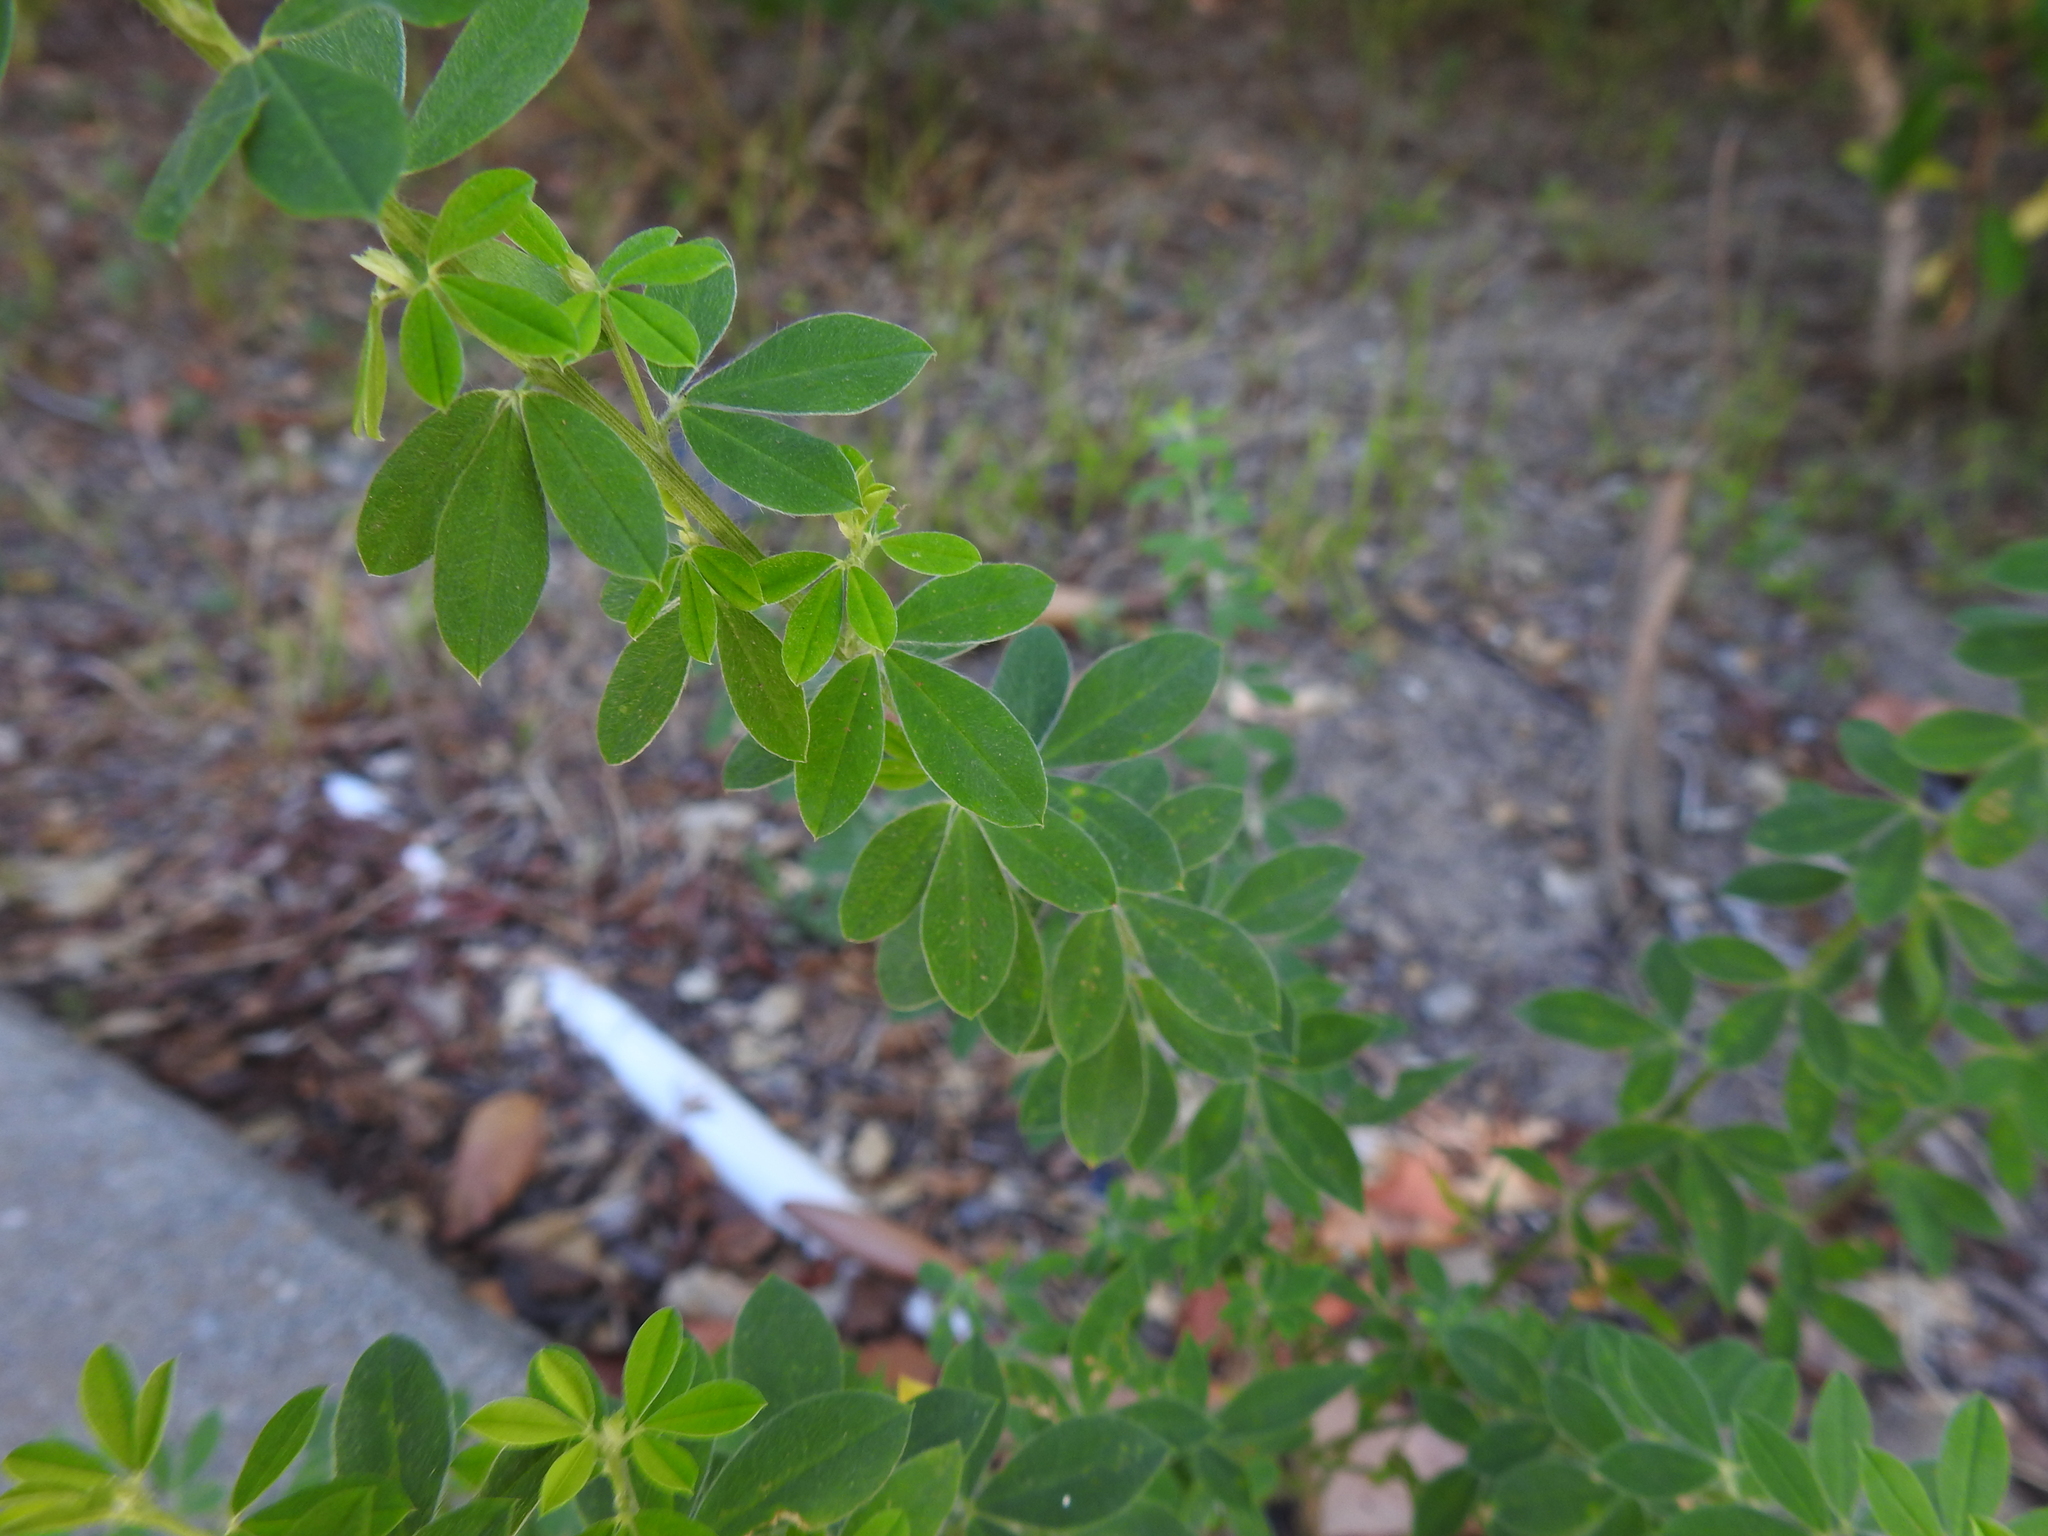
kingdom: Plantae
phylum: Tracheophyta
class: Magnoliopsida
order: Fabales
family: Fabaceae
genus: Genista
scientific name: Genista monspessulana
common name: Montpellier broom
